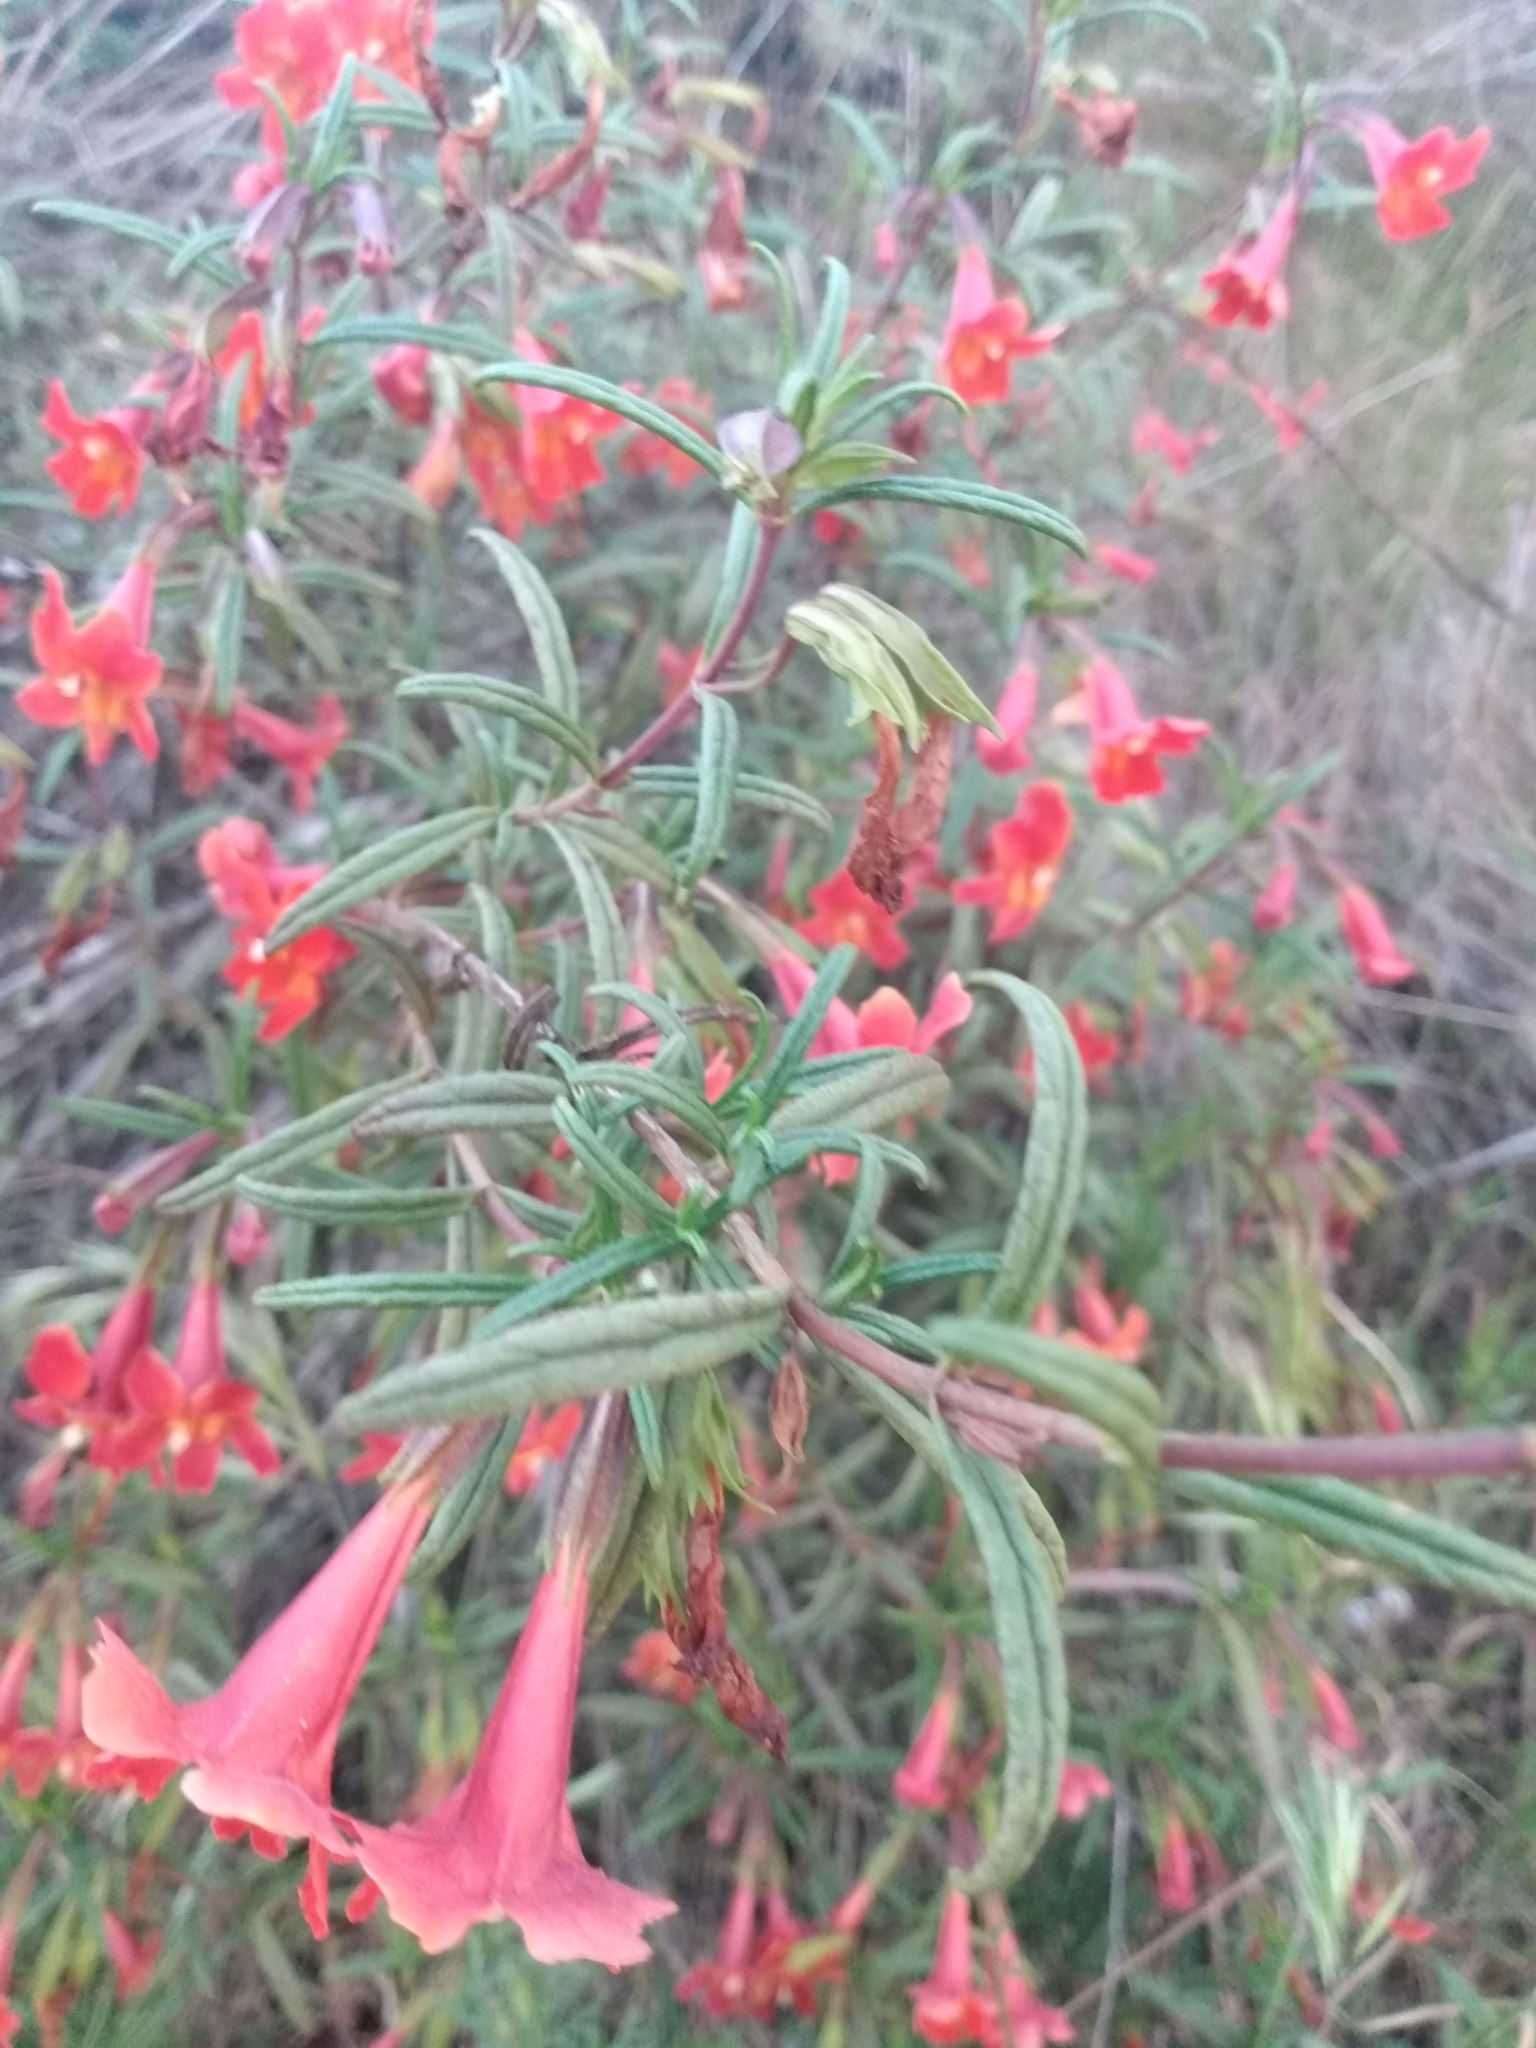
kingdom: Plantae
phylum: Tracheophyta
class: Magnoliopsida
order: Lamiales
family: Phrymaceae
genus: Diplacus
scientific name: Diplacus puniceus
